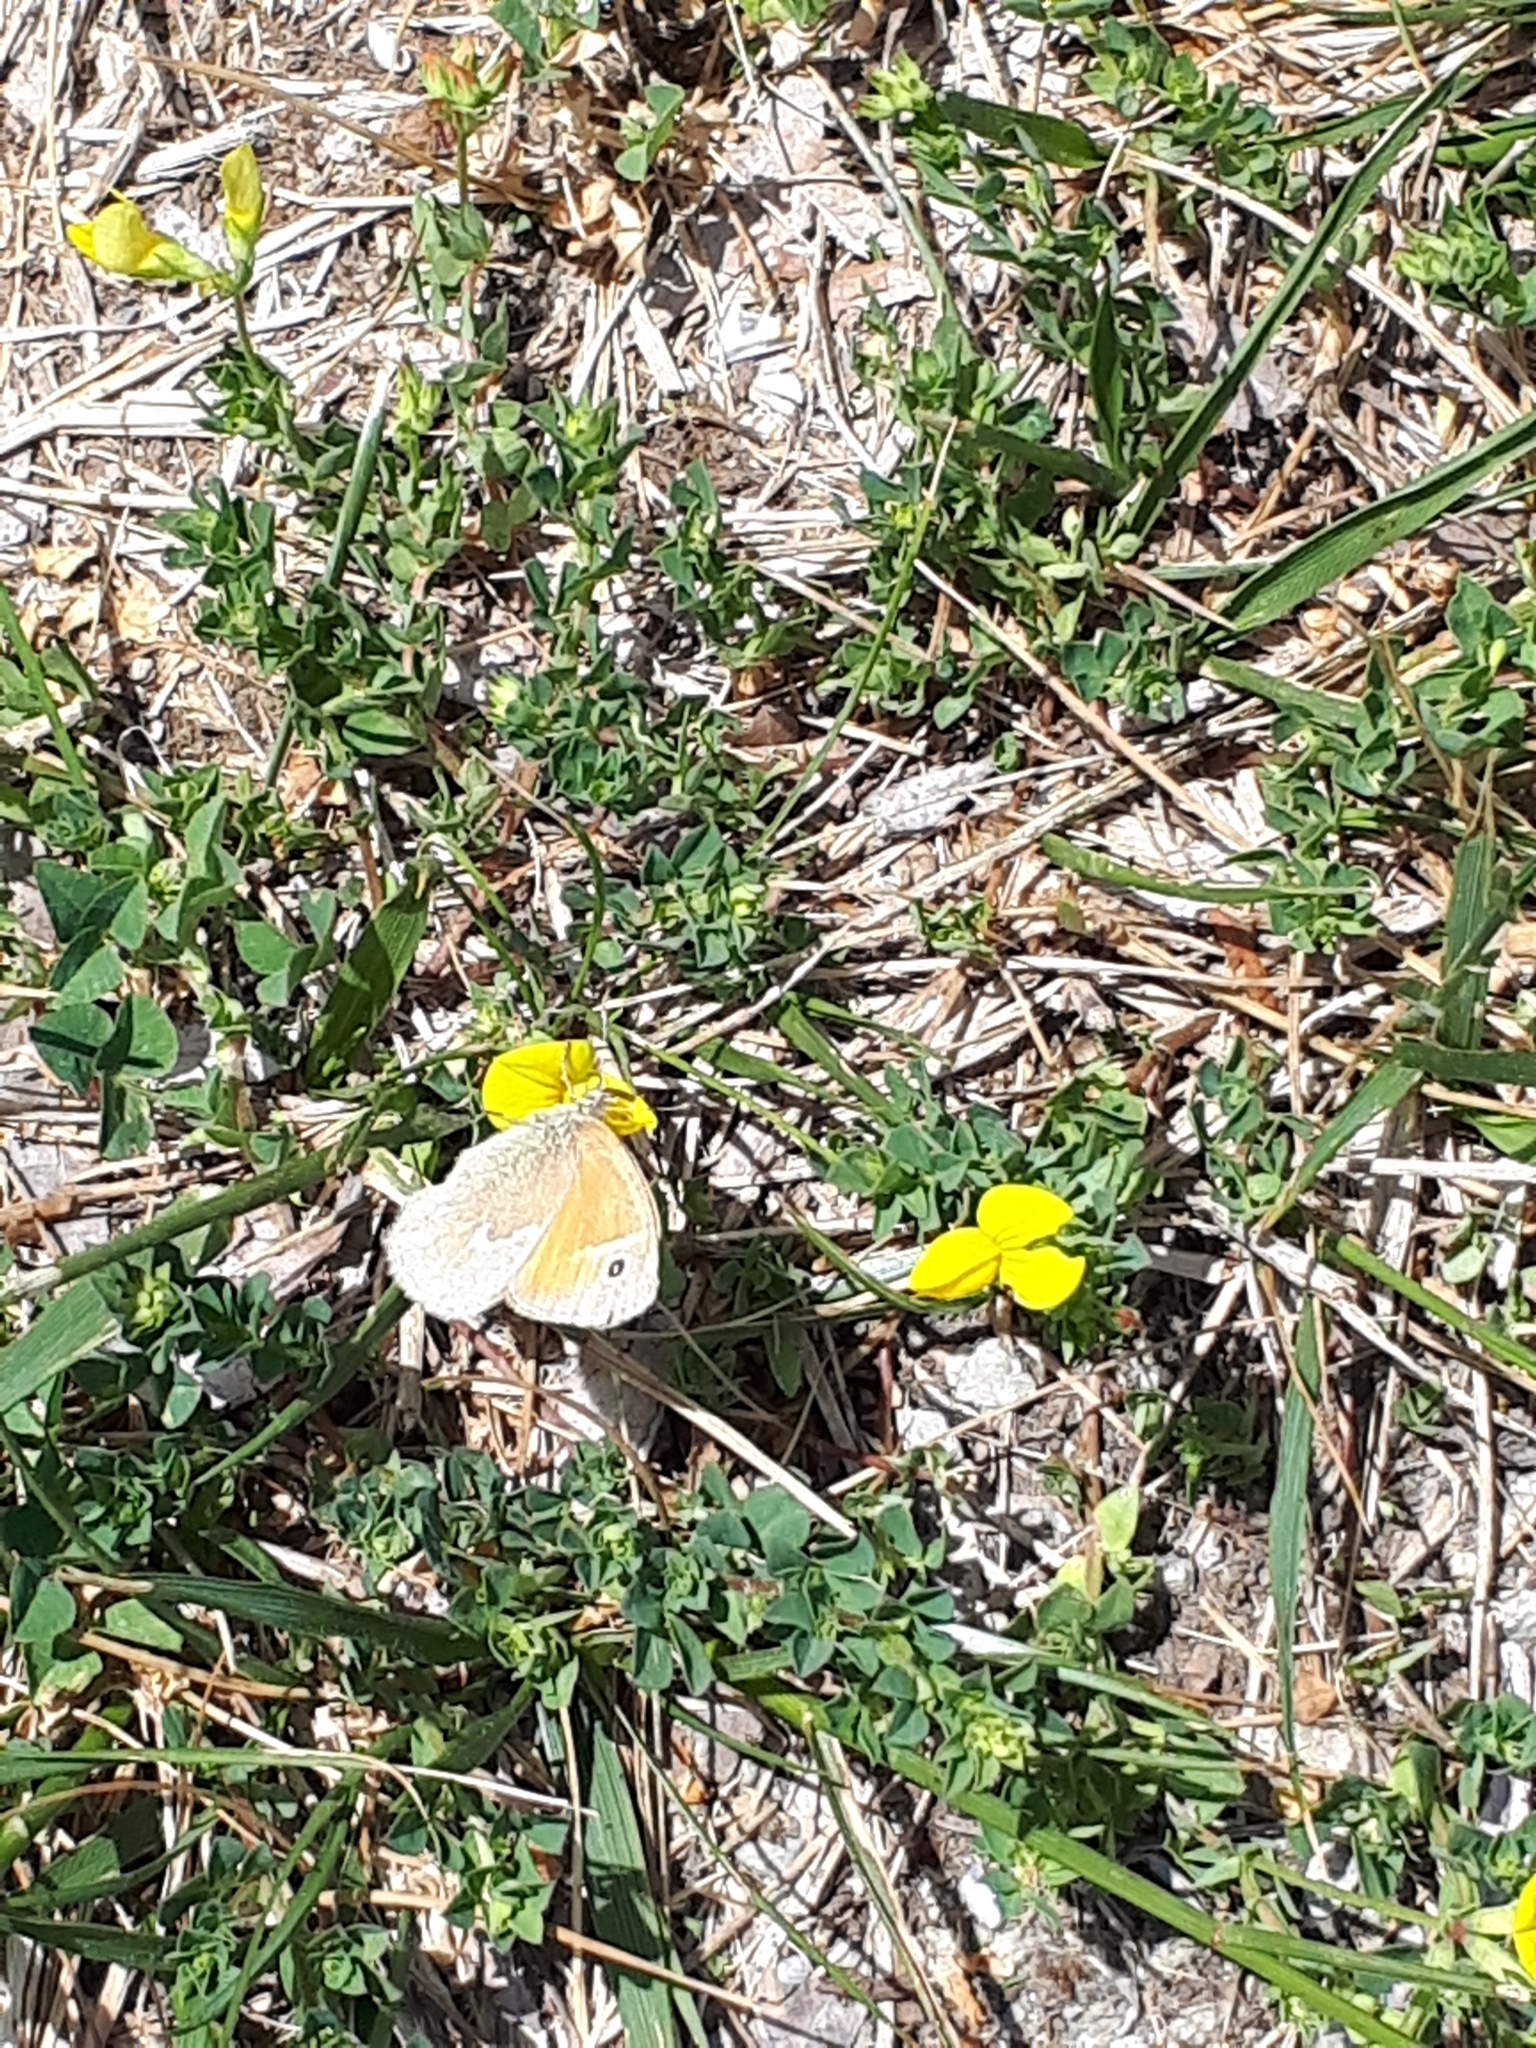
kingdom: Animalia
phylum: Arthropoda
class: Insecta
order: Lepidoptera
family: Nymphalidae
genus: Coenonympha
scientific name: Coenonympha california
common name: Common ringlet
